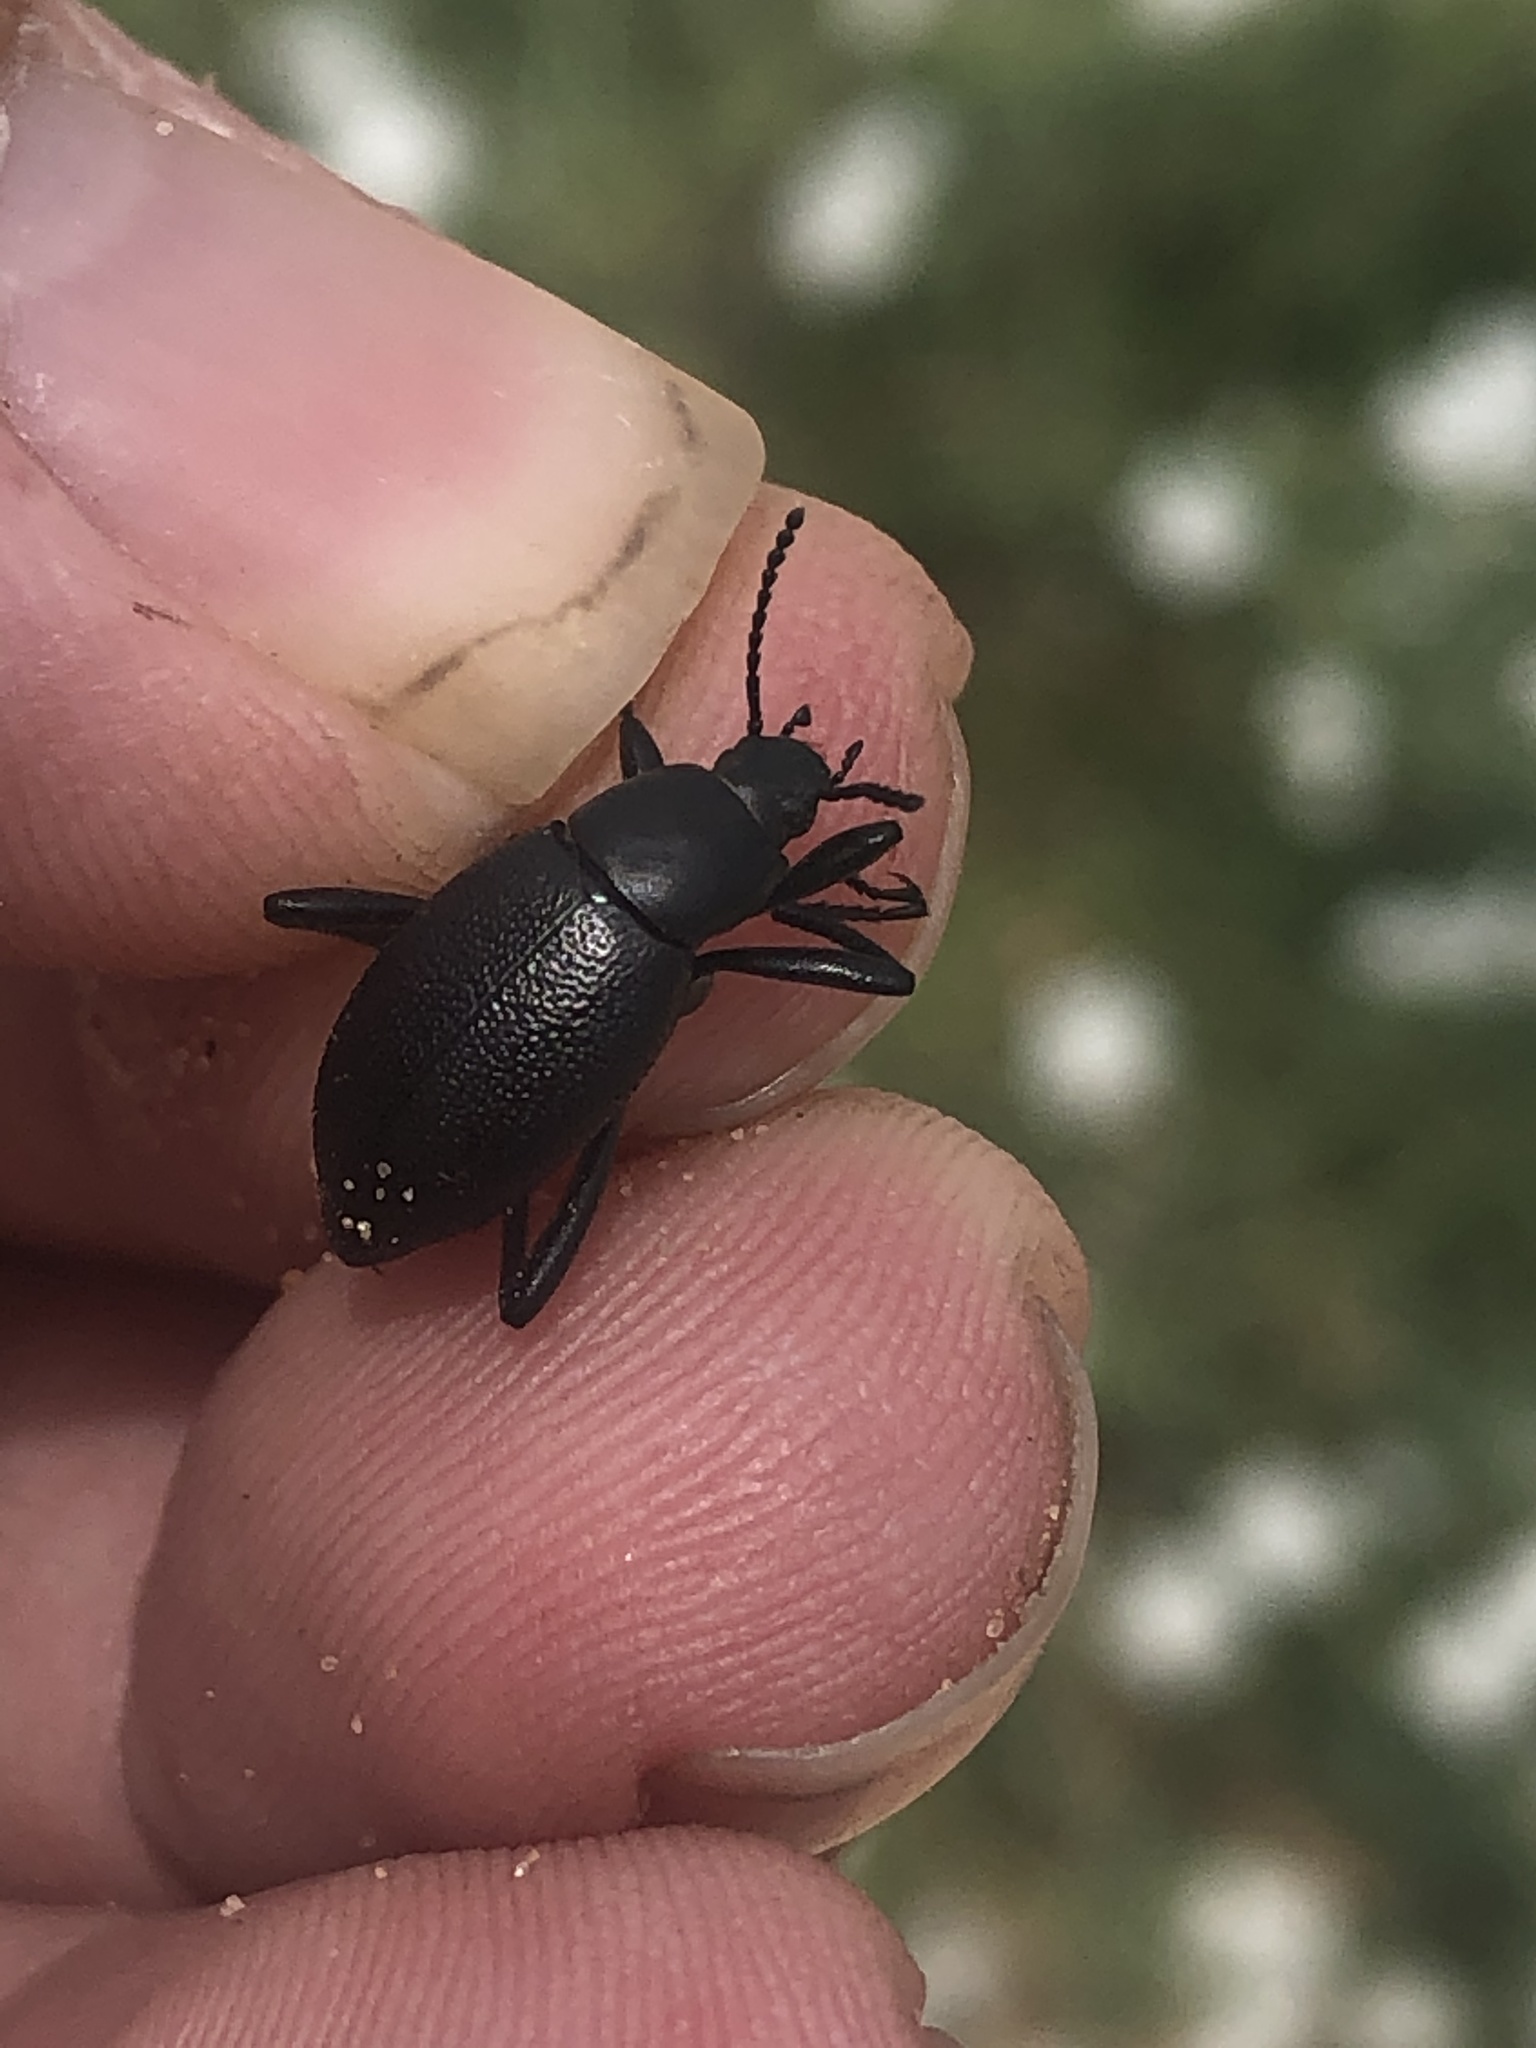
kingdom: Animalia
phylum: Arthropoda
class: Insecta
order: Coleoptera
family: Tenebrionidae
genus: Eleodes
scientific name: Eleodes extricata
